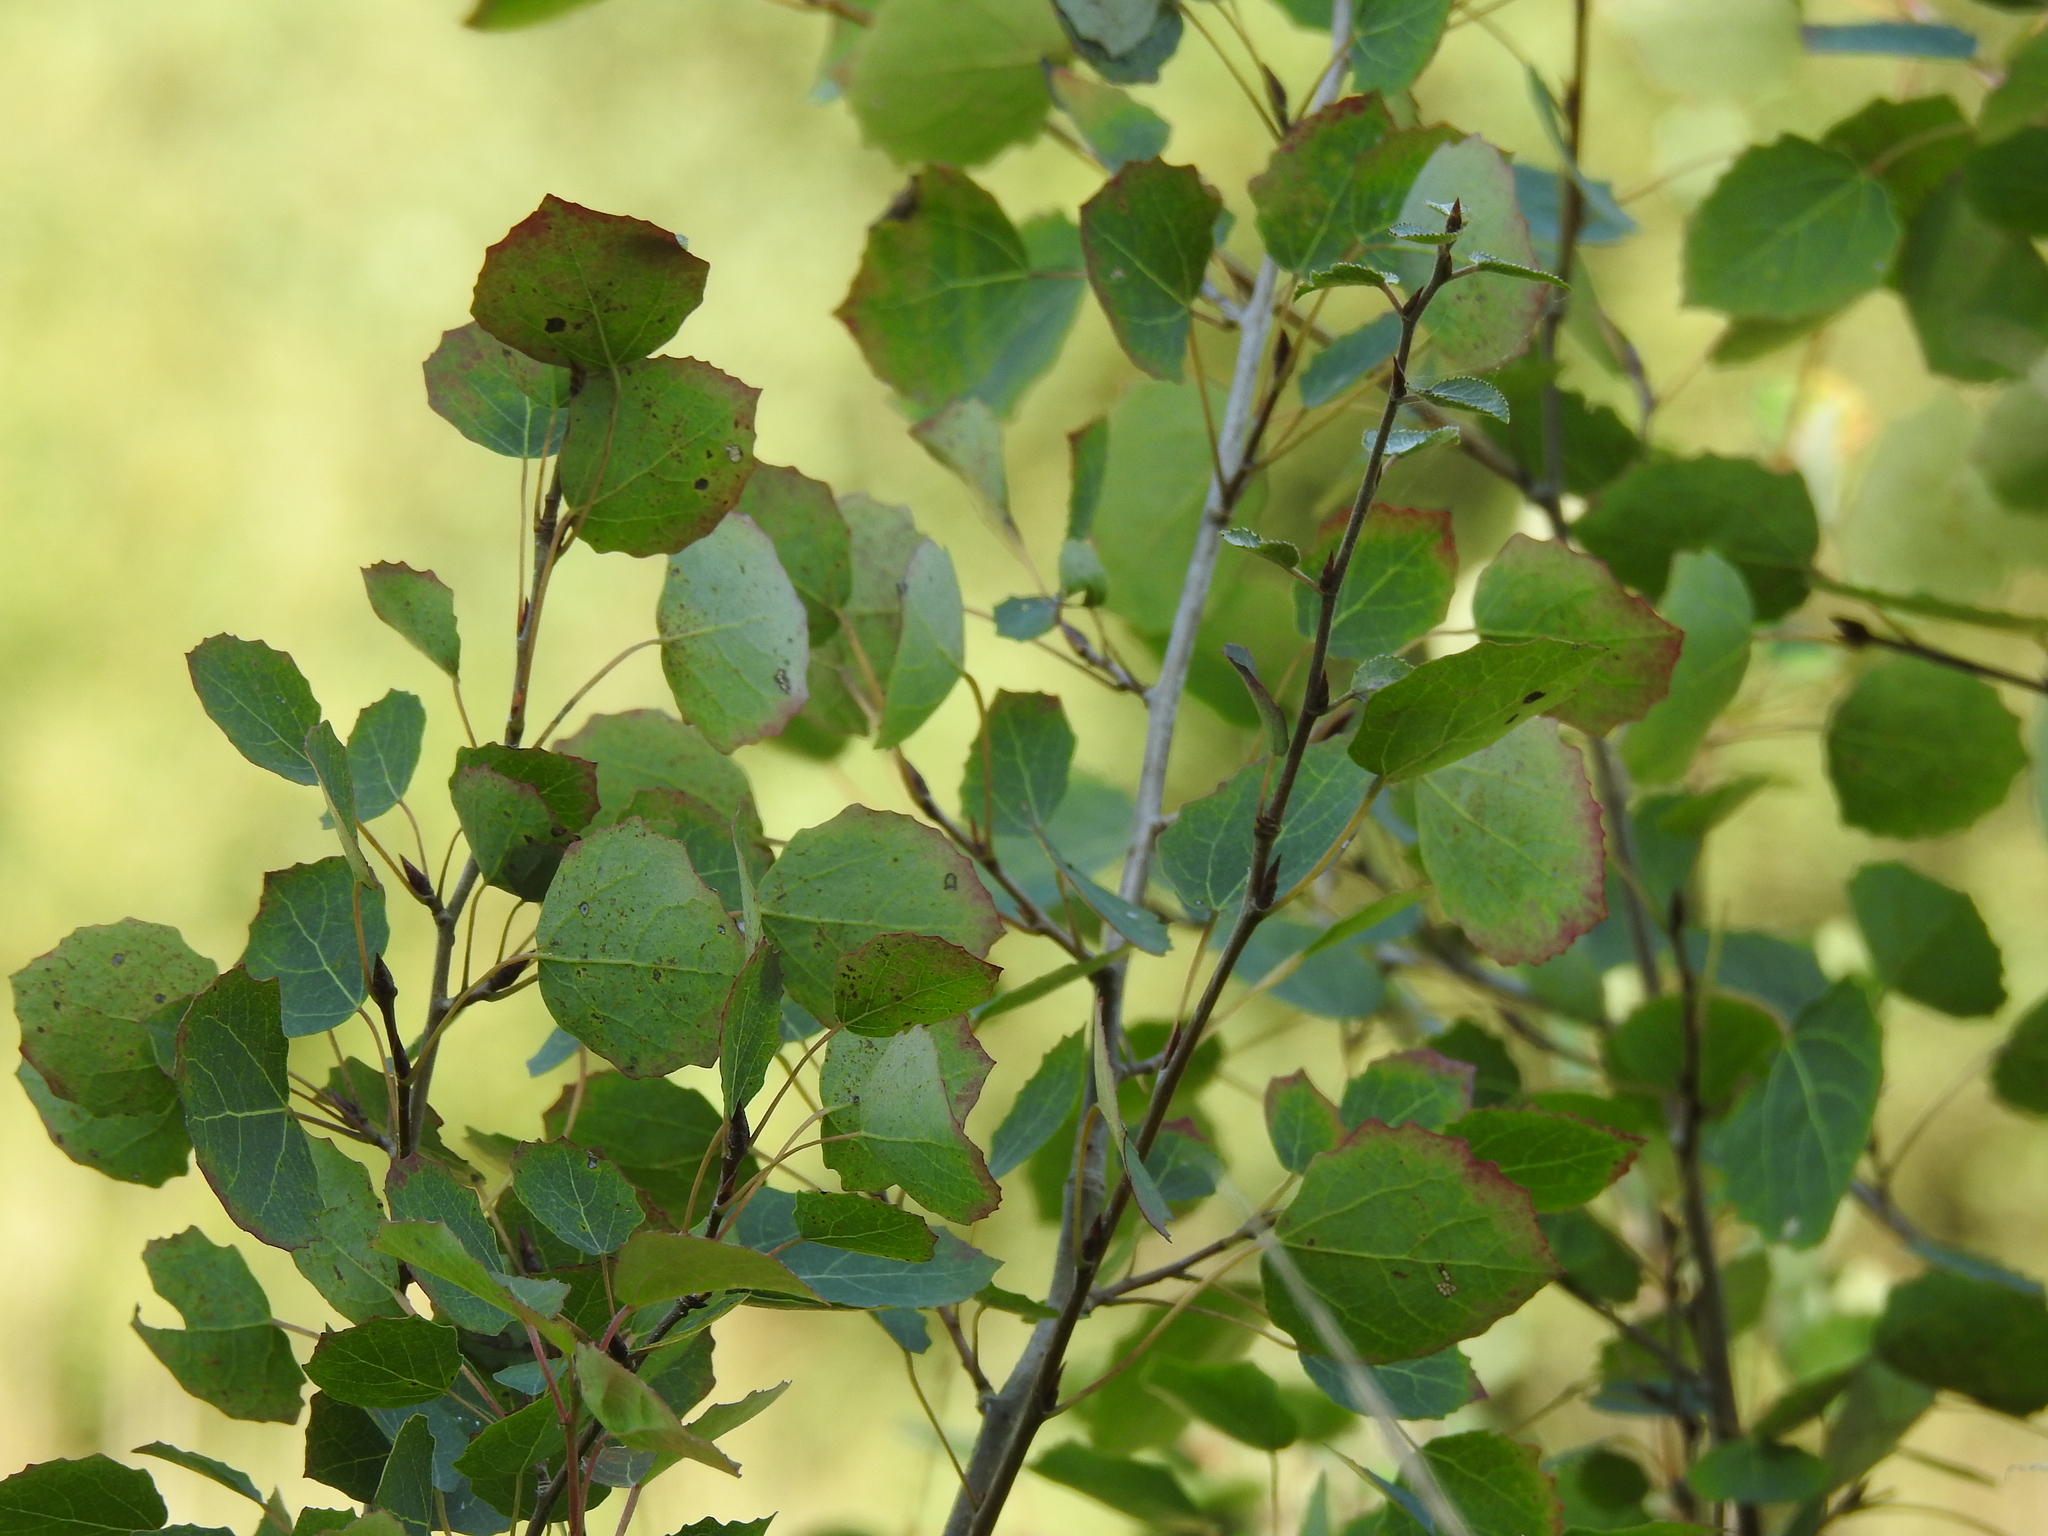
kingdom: Plantae
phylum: Tracheophyta
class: Magnoliopsida
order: Malpighiales
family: Salicaceae
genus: Populus
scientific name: Populus tremula
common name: European aspen
